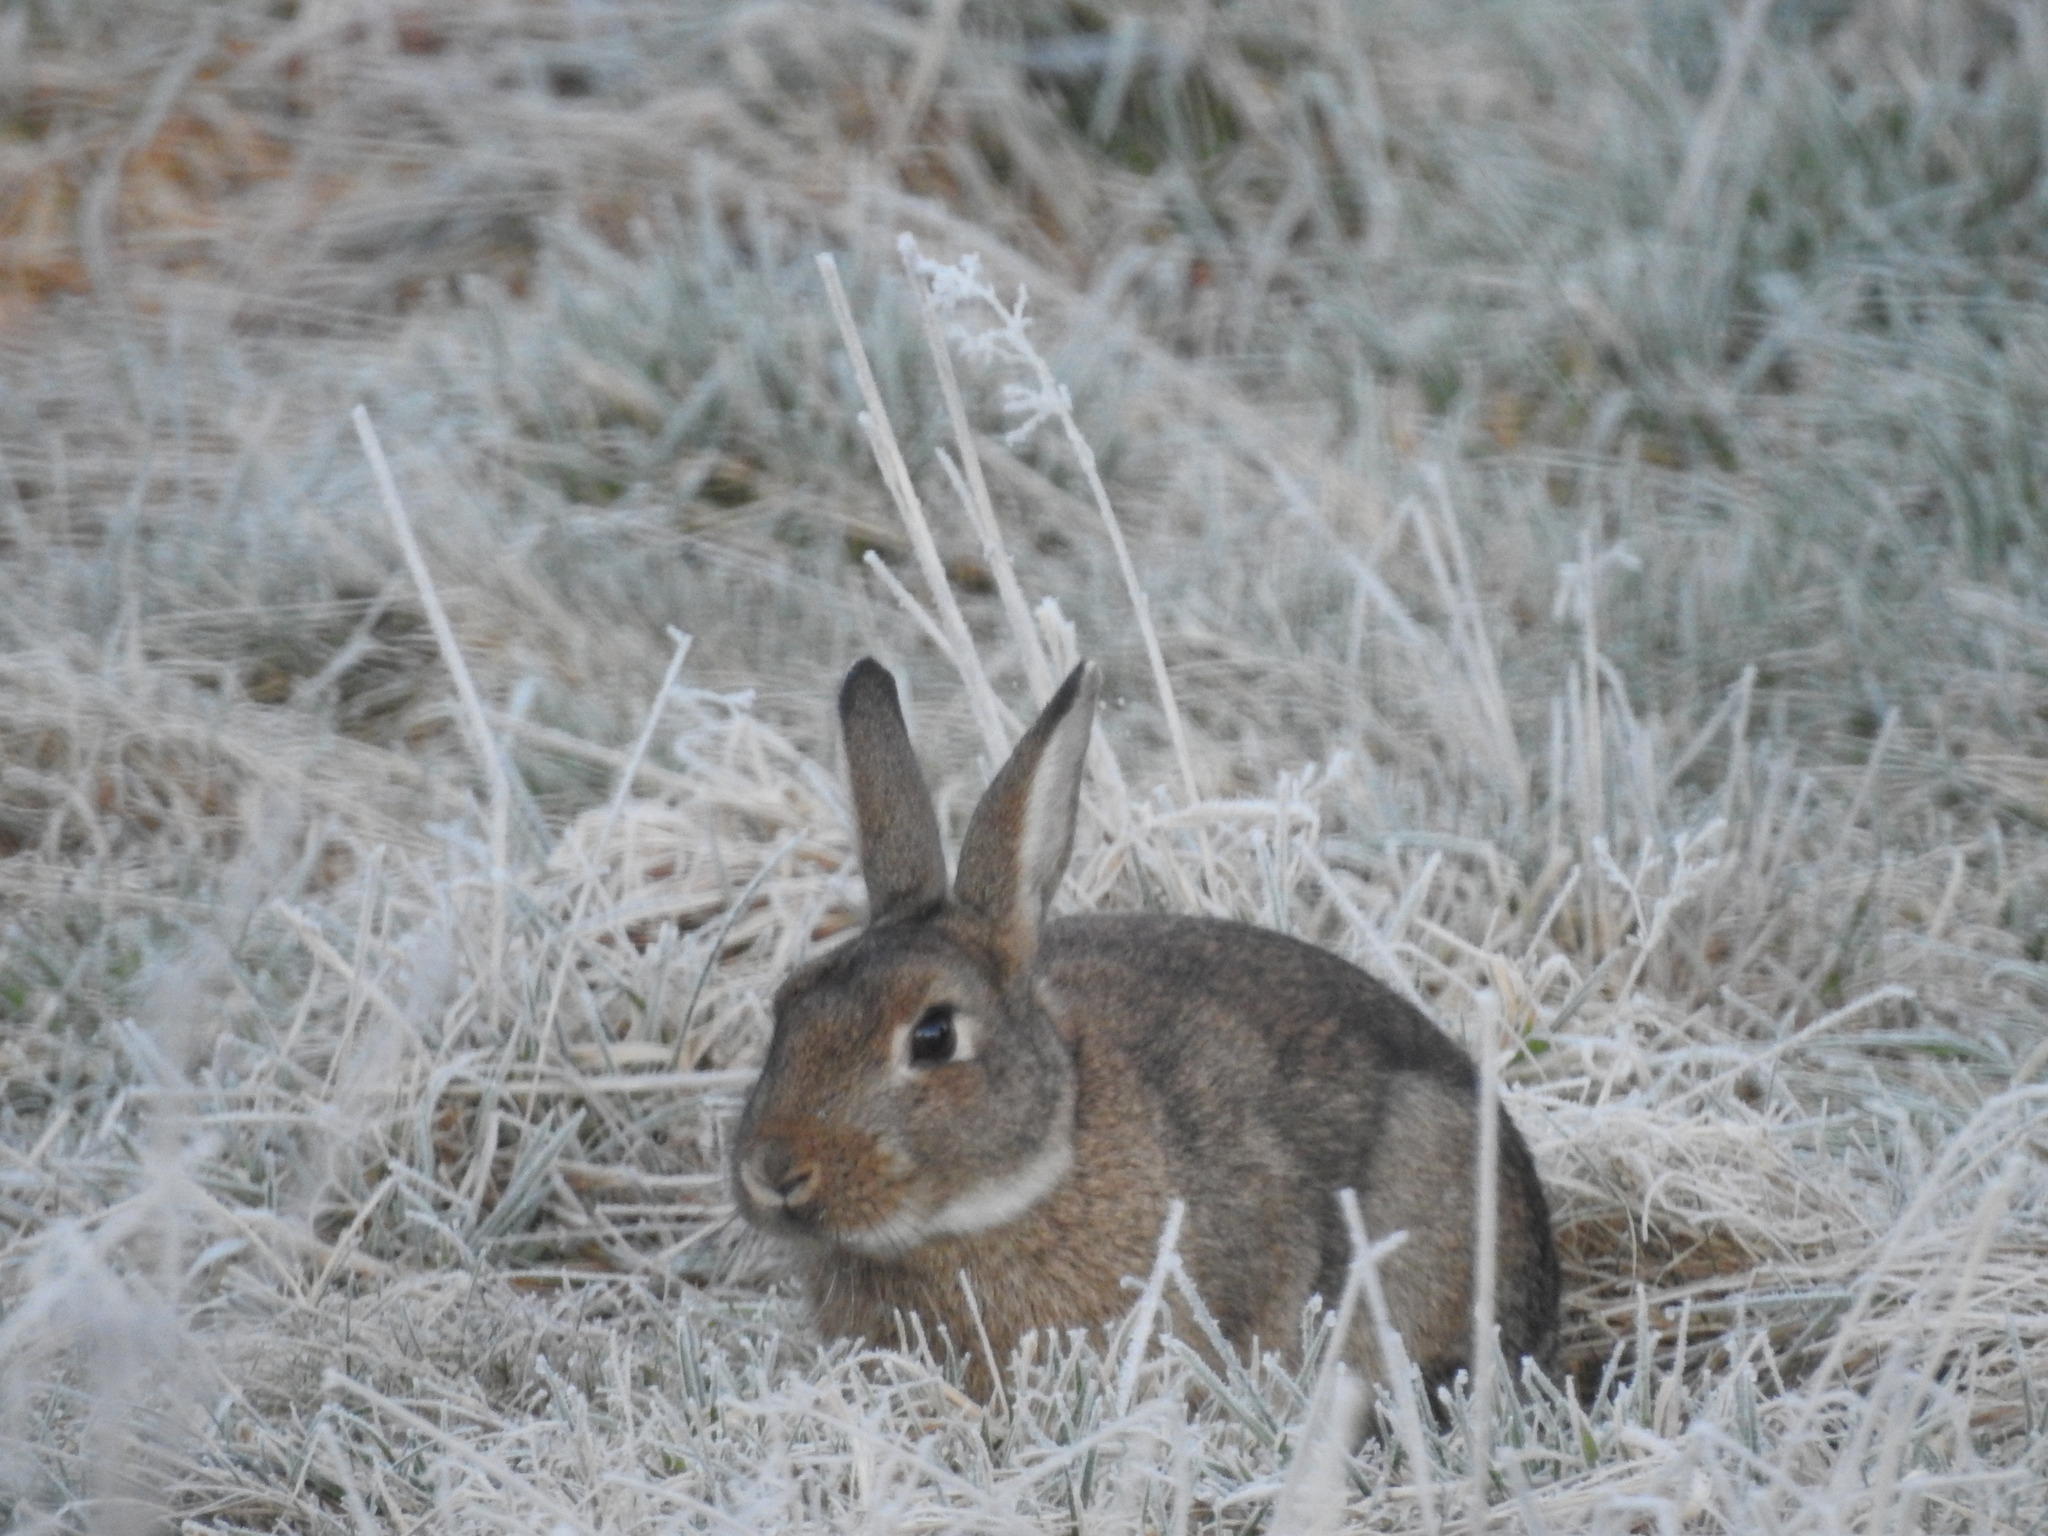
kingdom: Animalia
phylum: Chordata
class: Mammalia
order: Lagomorpha
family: Leporidae
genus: Oryctolagus
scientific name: Oryctolagus cuniculus
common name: European rabbit
